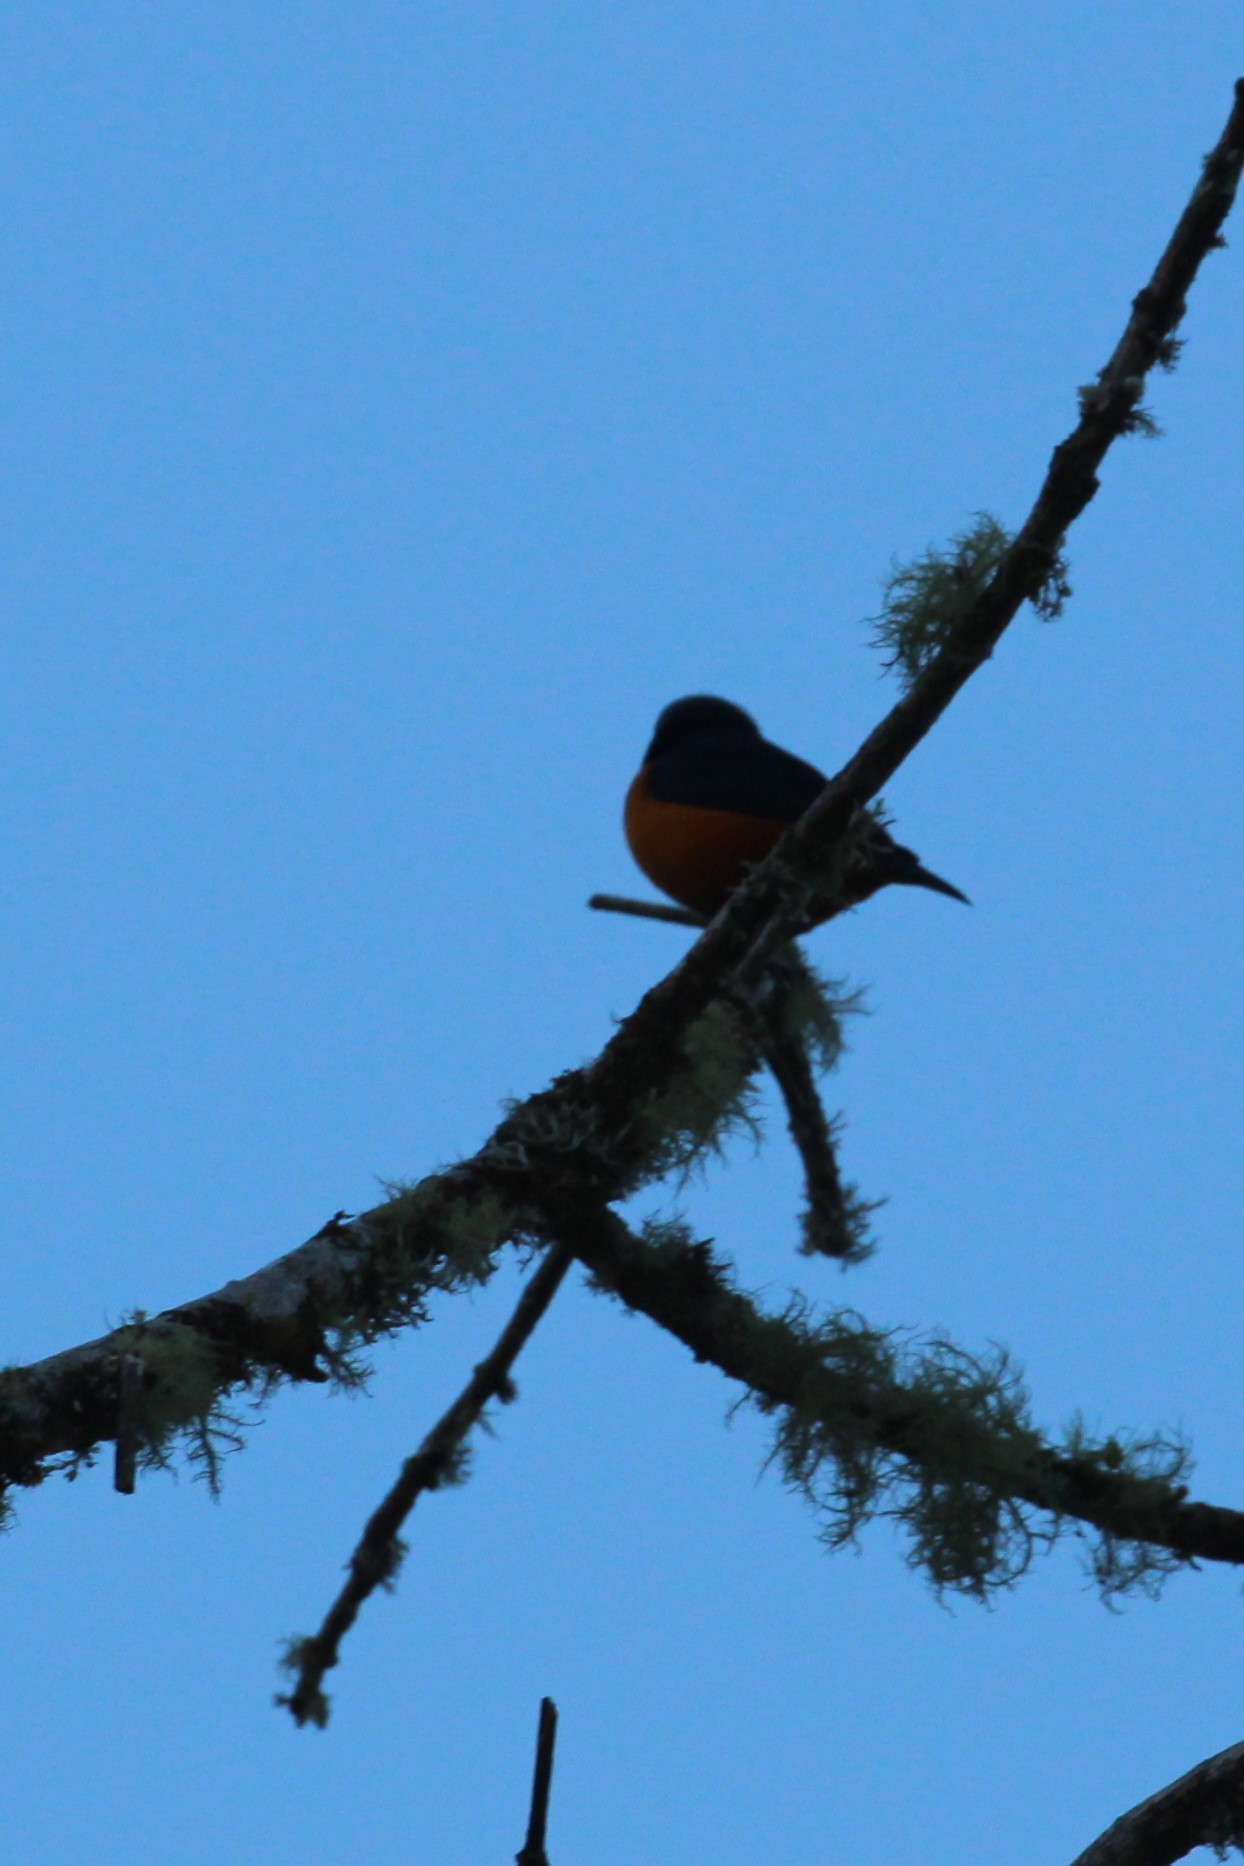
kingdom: Animalia
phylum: Chordata
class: Aves
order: Passeriformes
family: Fringillidae
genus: Euphonia
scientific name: Euphonia elegantissima
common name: Elegant euphonia
